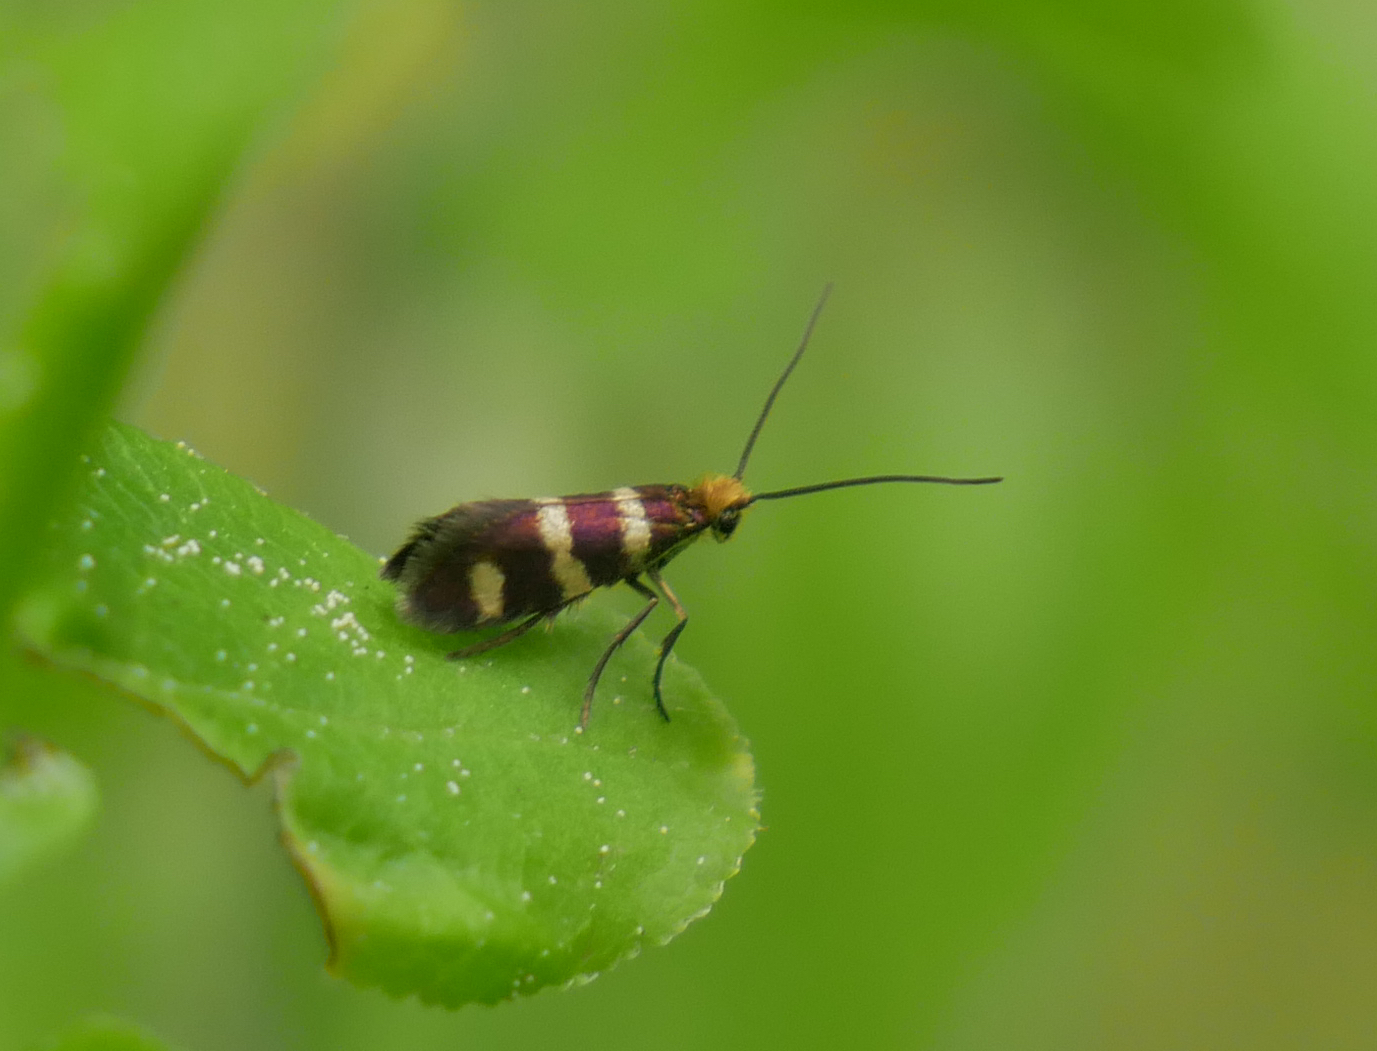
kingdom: Animalia
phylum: Arthropoda
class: Insecta
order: Lepidoptera
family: Micropterigidae
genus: Micropterix
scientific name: Micropterix aureatella
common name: Yellow-barred gold
